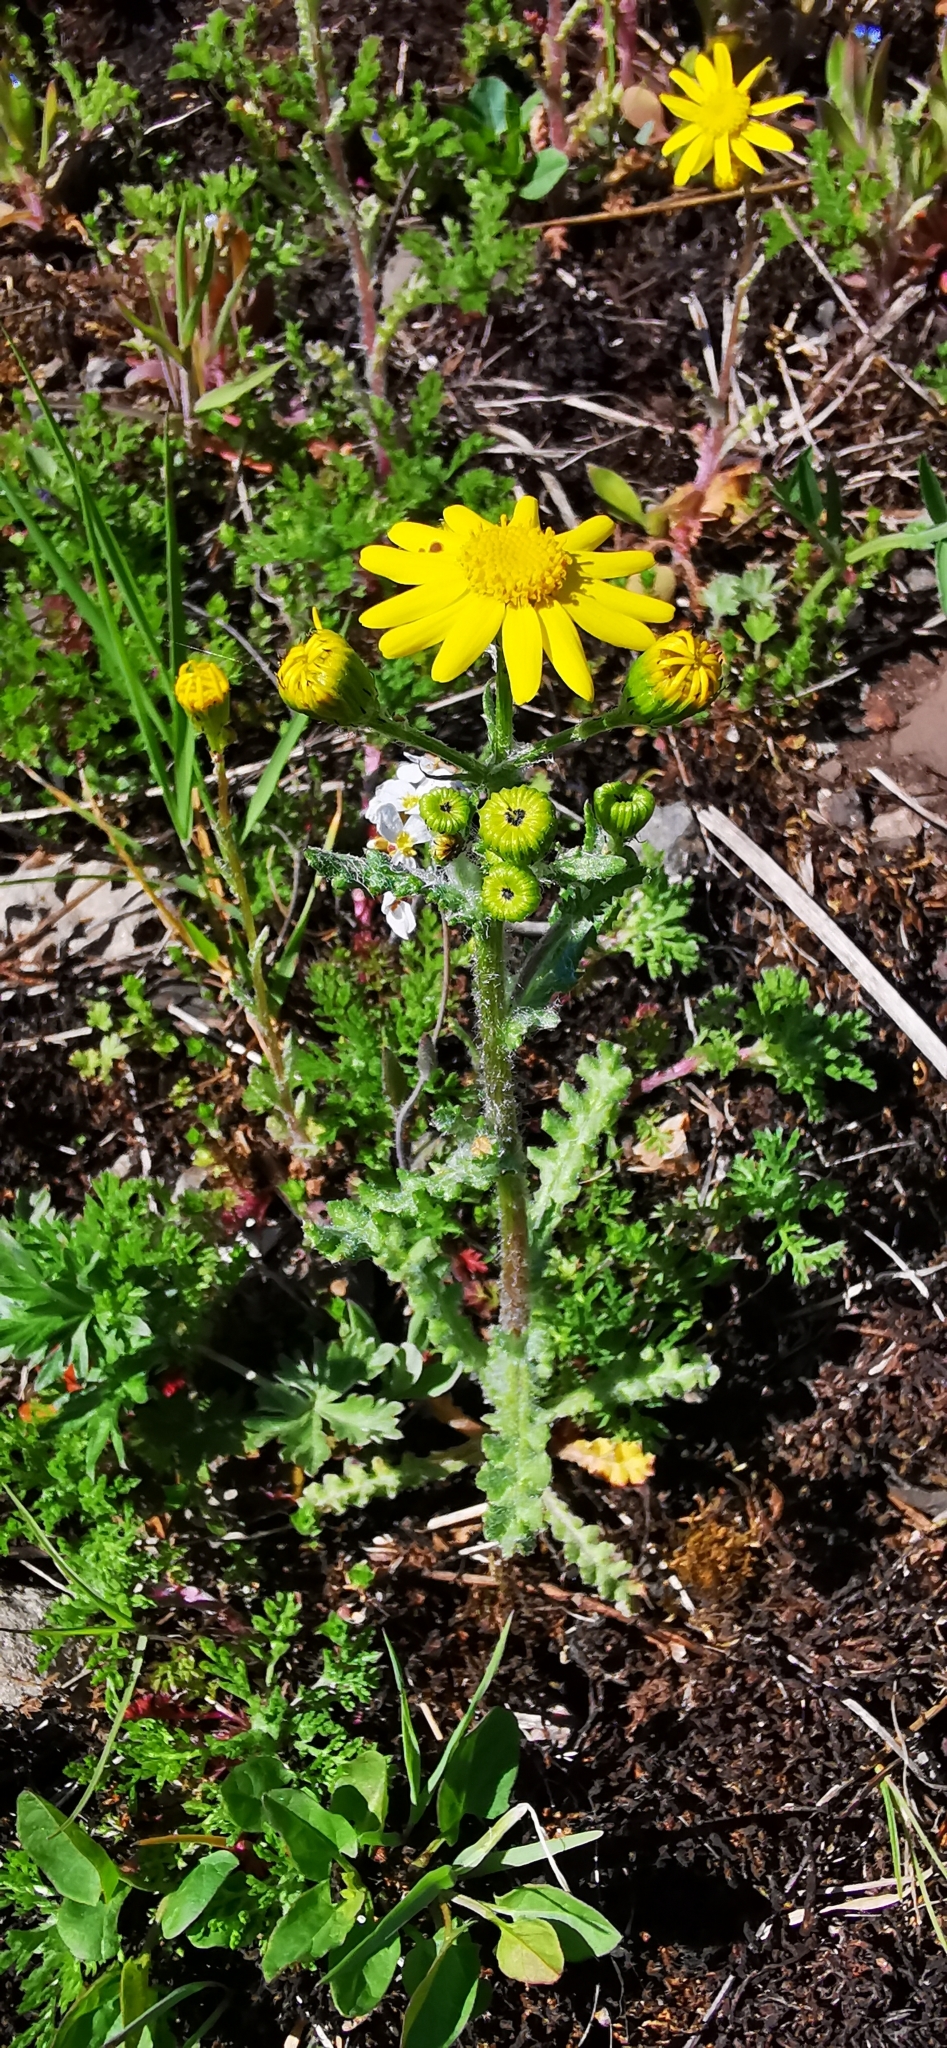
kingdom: Plantae
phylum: Tracheophyta
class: Magnoliopsida
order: Asterales
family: Asteraceae
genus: Senecio
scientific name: Senecio vernalis
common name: Eastern groundsel
